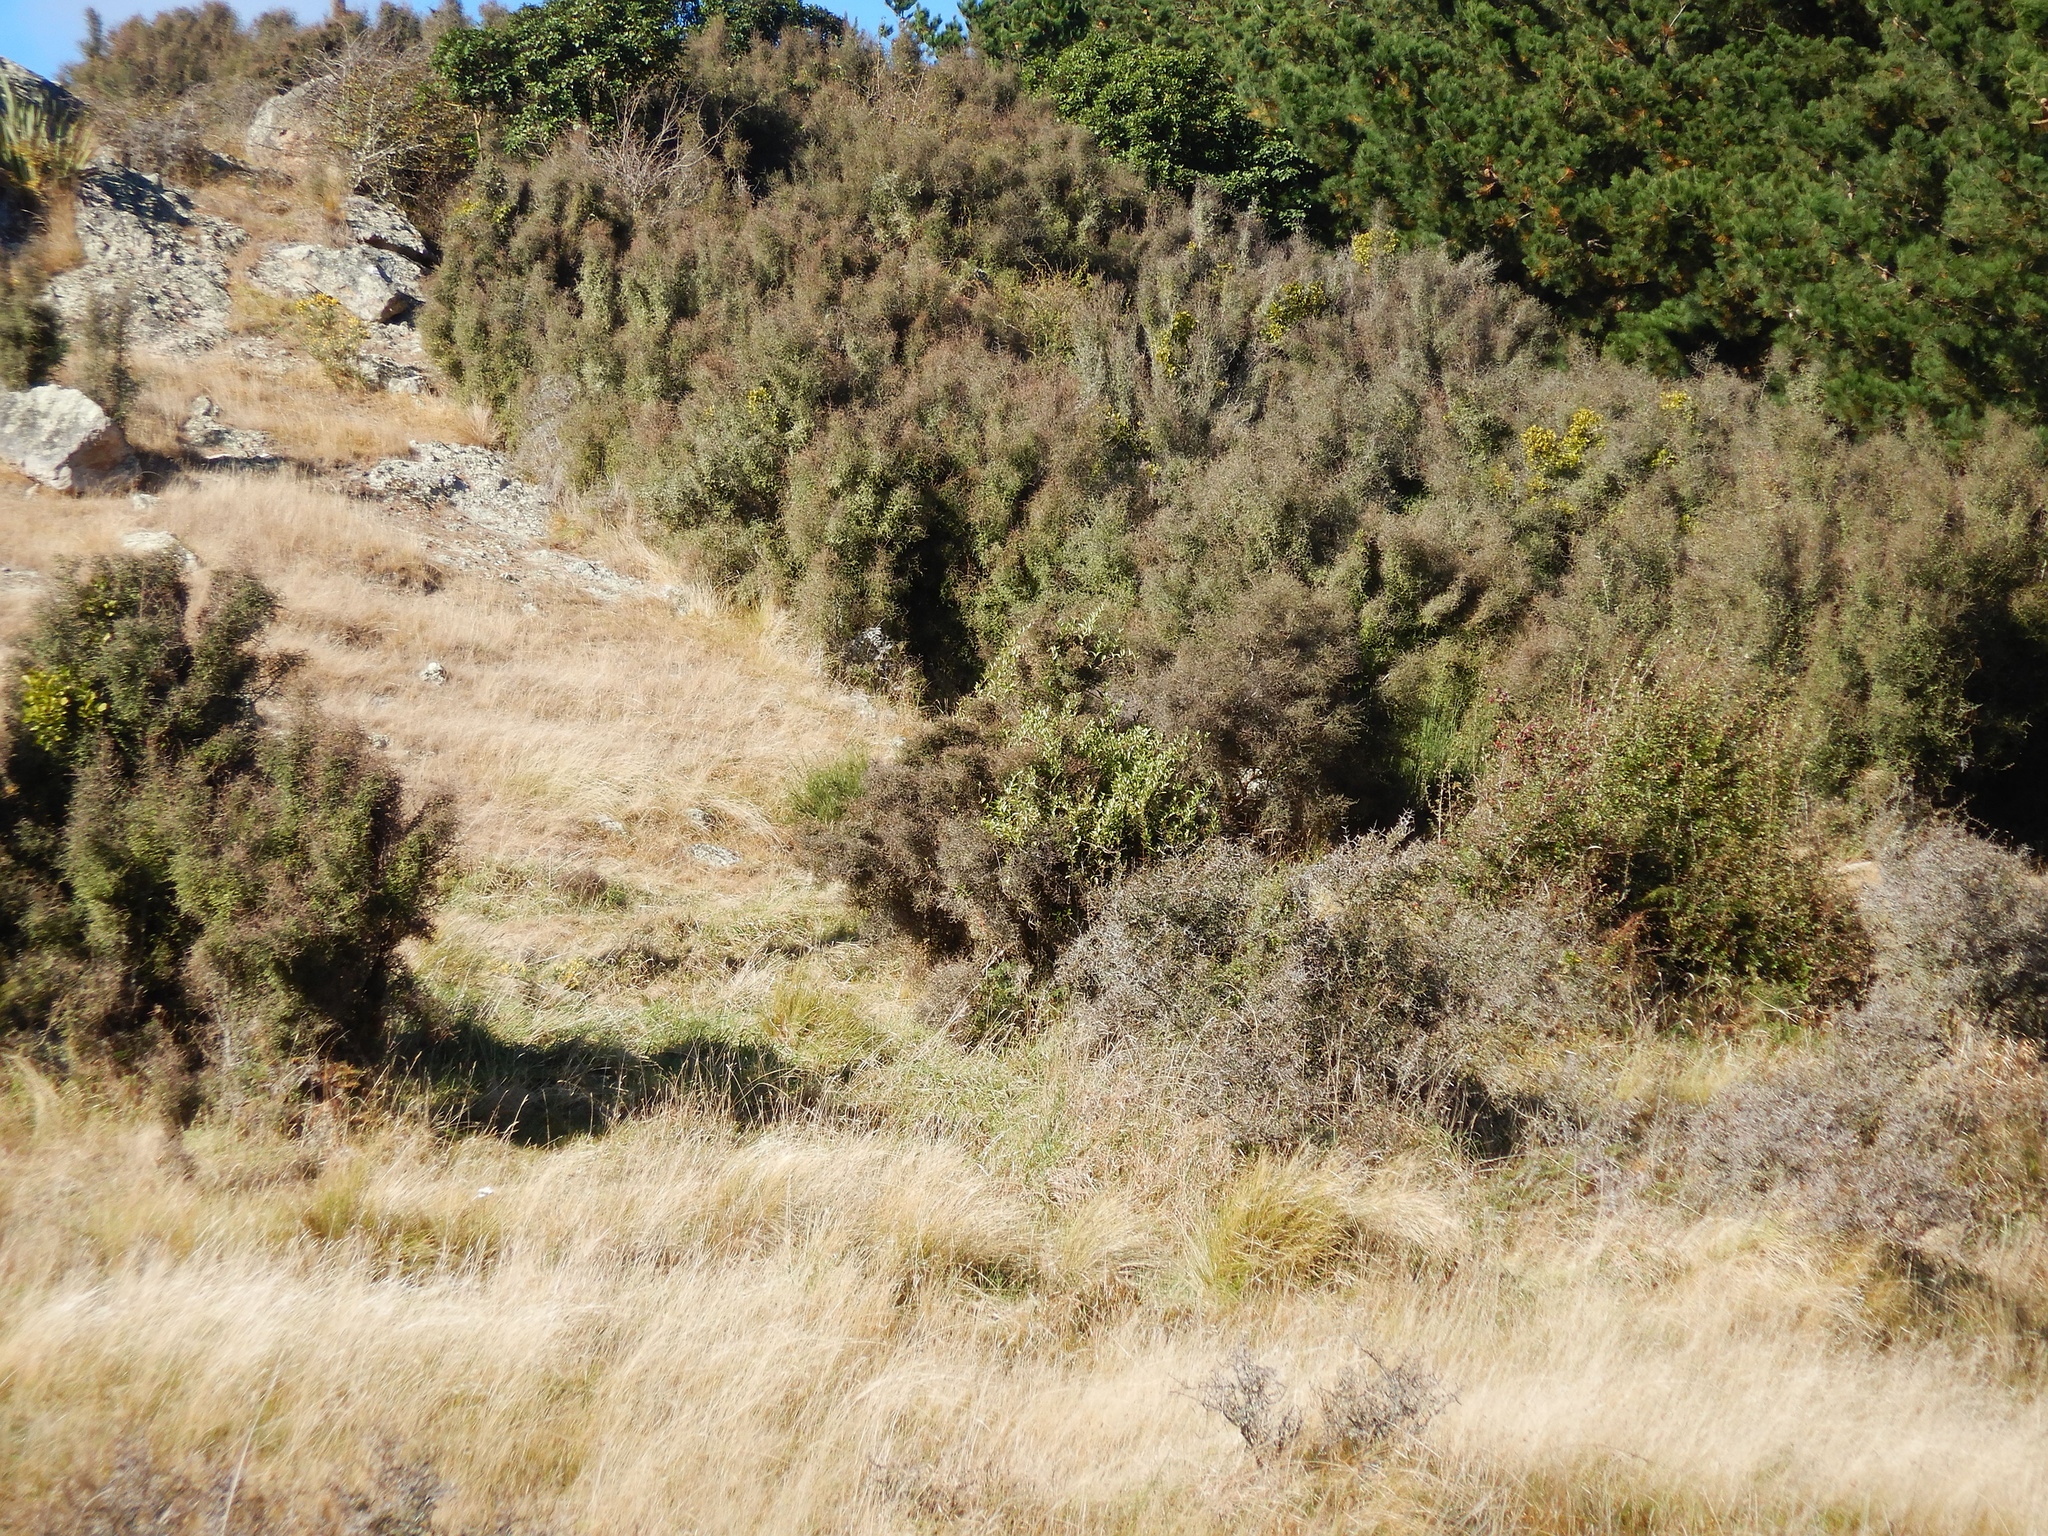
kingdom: Plantae
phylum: Tracheophyta
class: Magnoliopsida
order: Santalales
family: Loranthaceae
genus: Ileostylus
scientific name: Ileostylus micranthus
